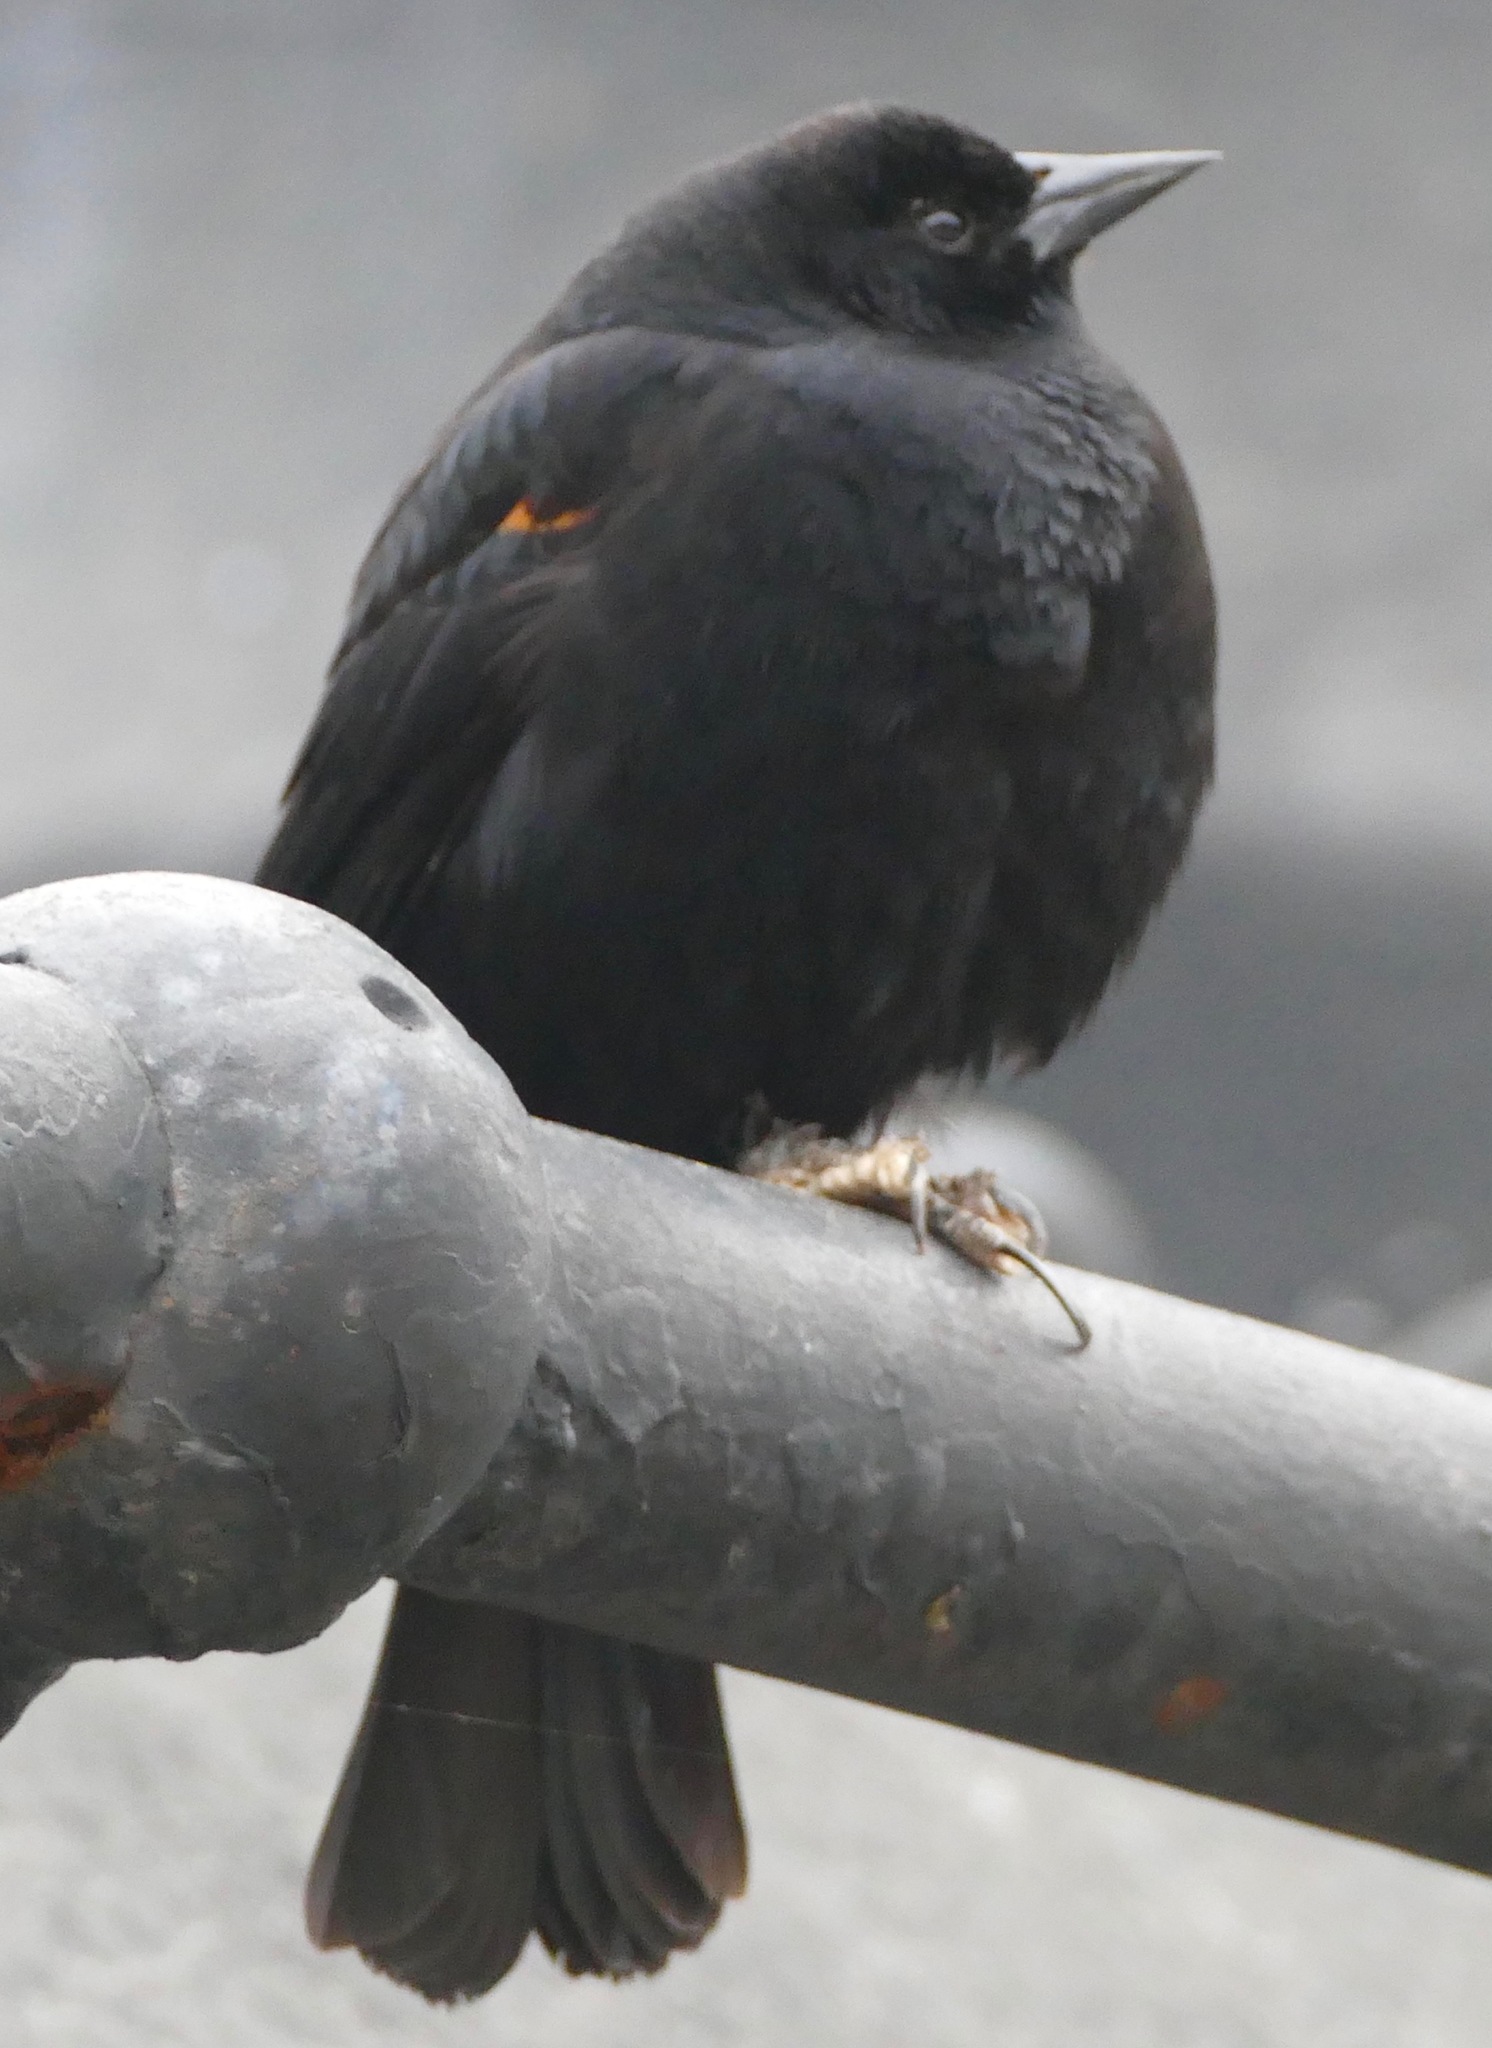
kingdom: Animalia
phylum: Chordata
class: Aves
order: Passeriformes
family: Icteridae
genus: Agelaius
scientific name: Agelaius phoeniceus
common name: Red-winged blackbird
